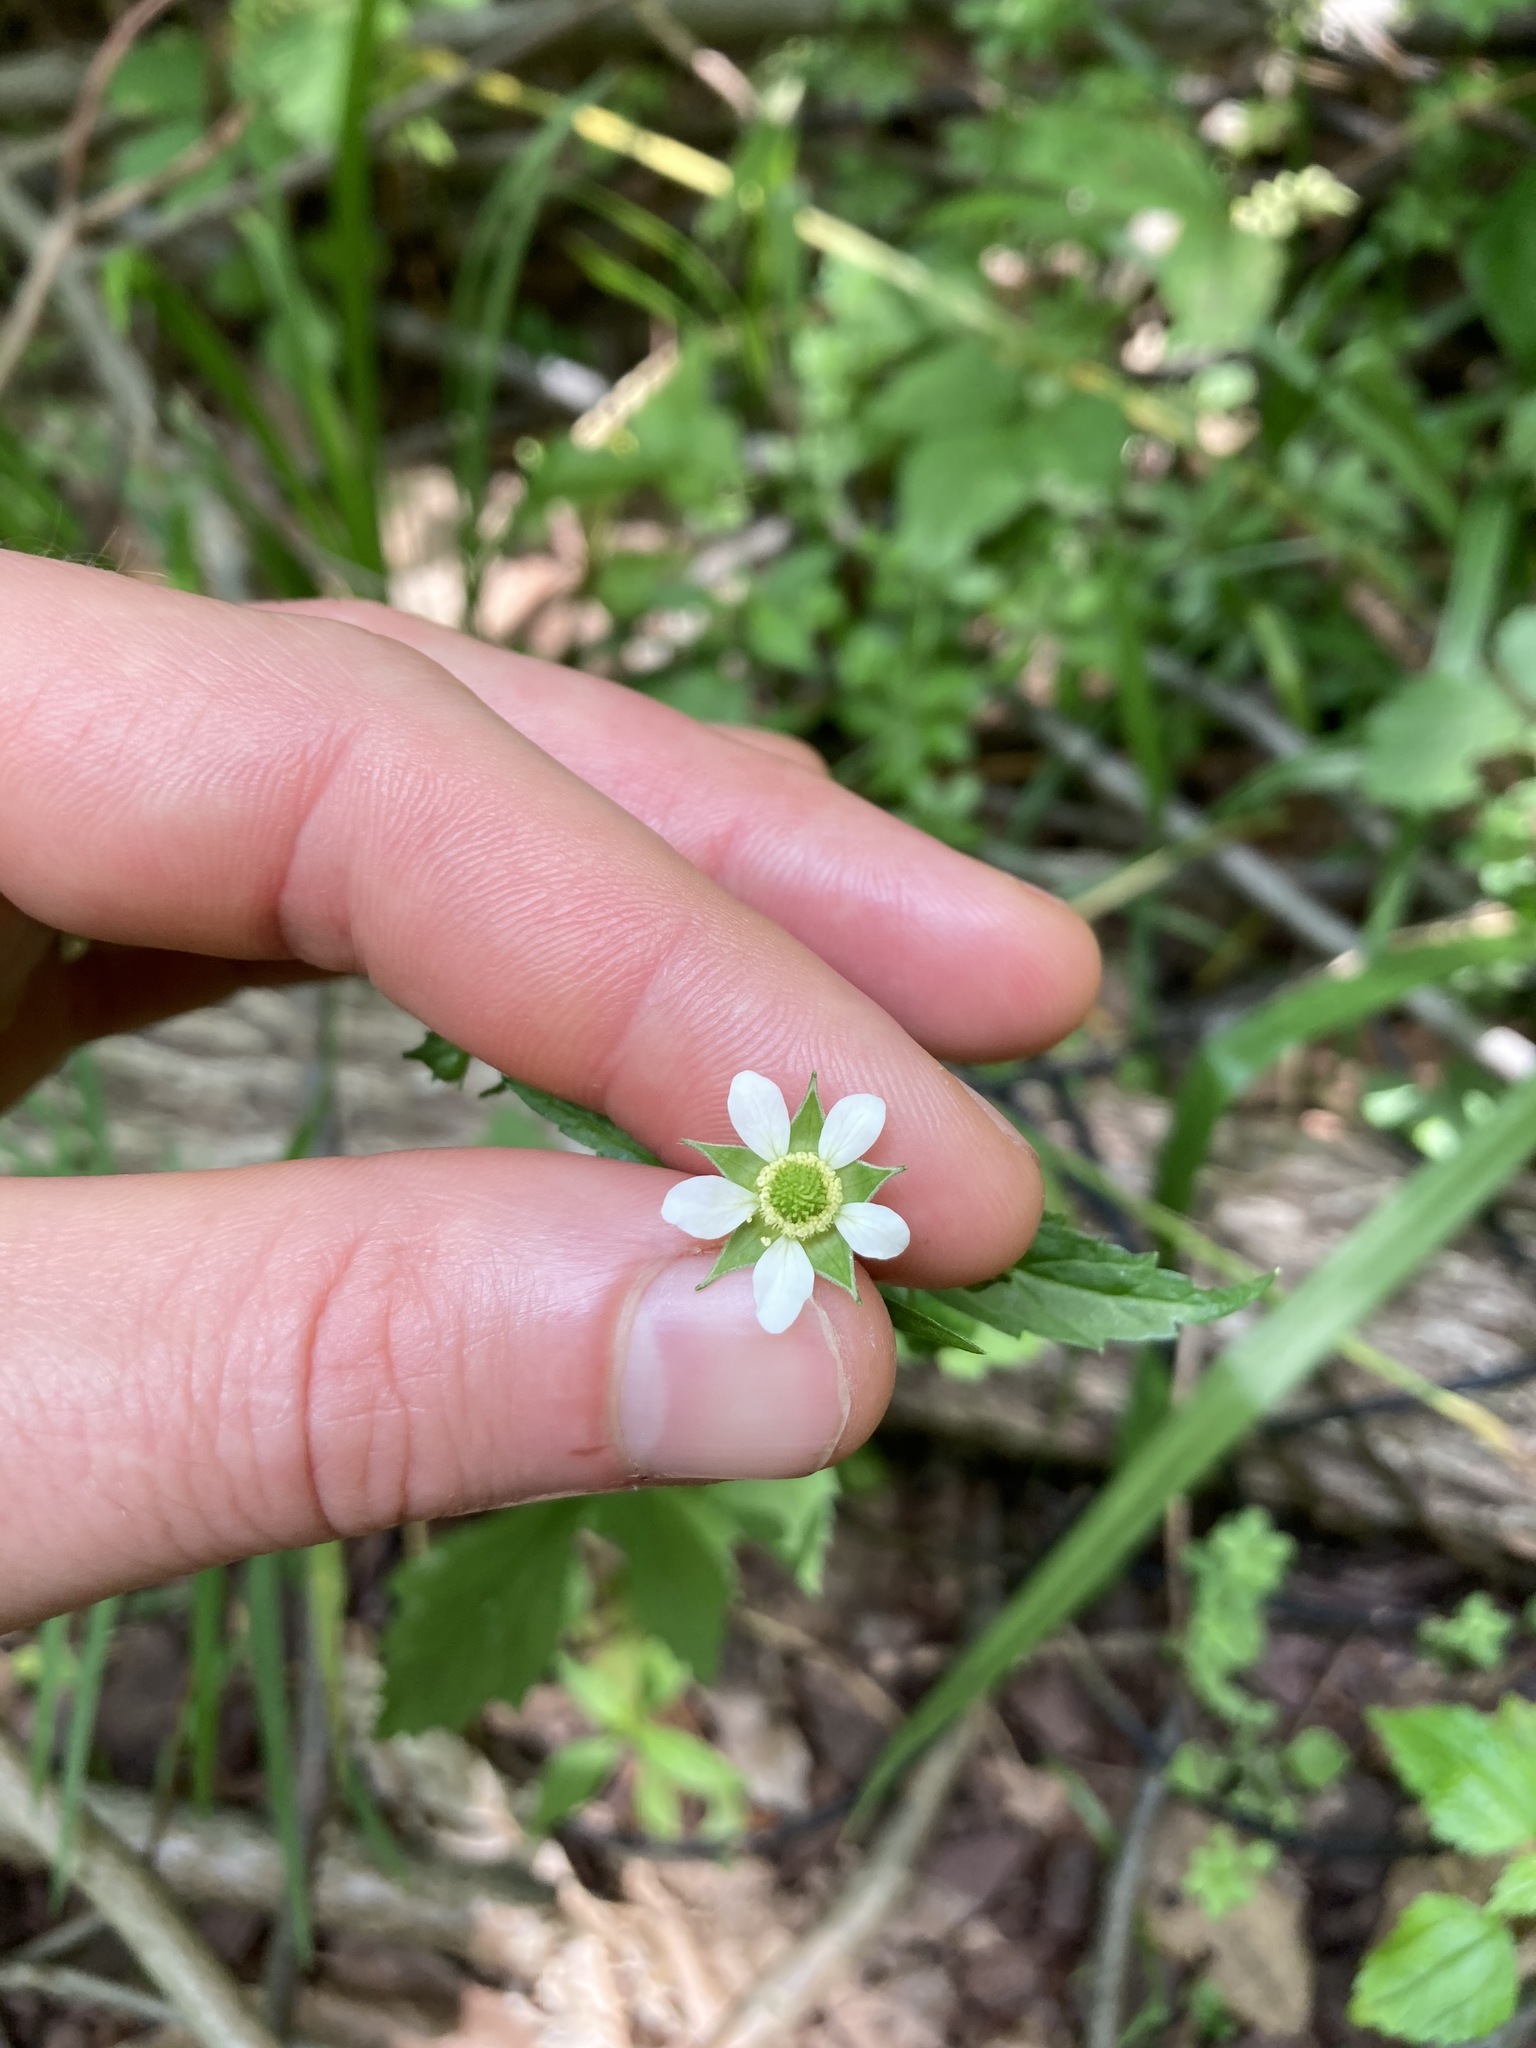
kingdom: Plantae
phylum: Tracheophyta
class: Magnoliopsida
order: Rosales
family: Rosaceae
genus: Geum
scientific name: Geum canadense
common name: White avens
